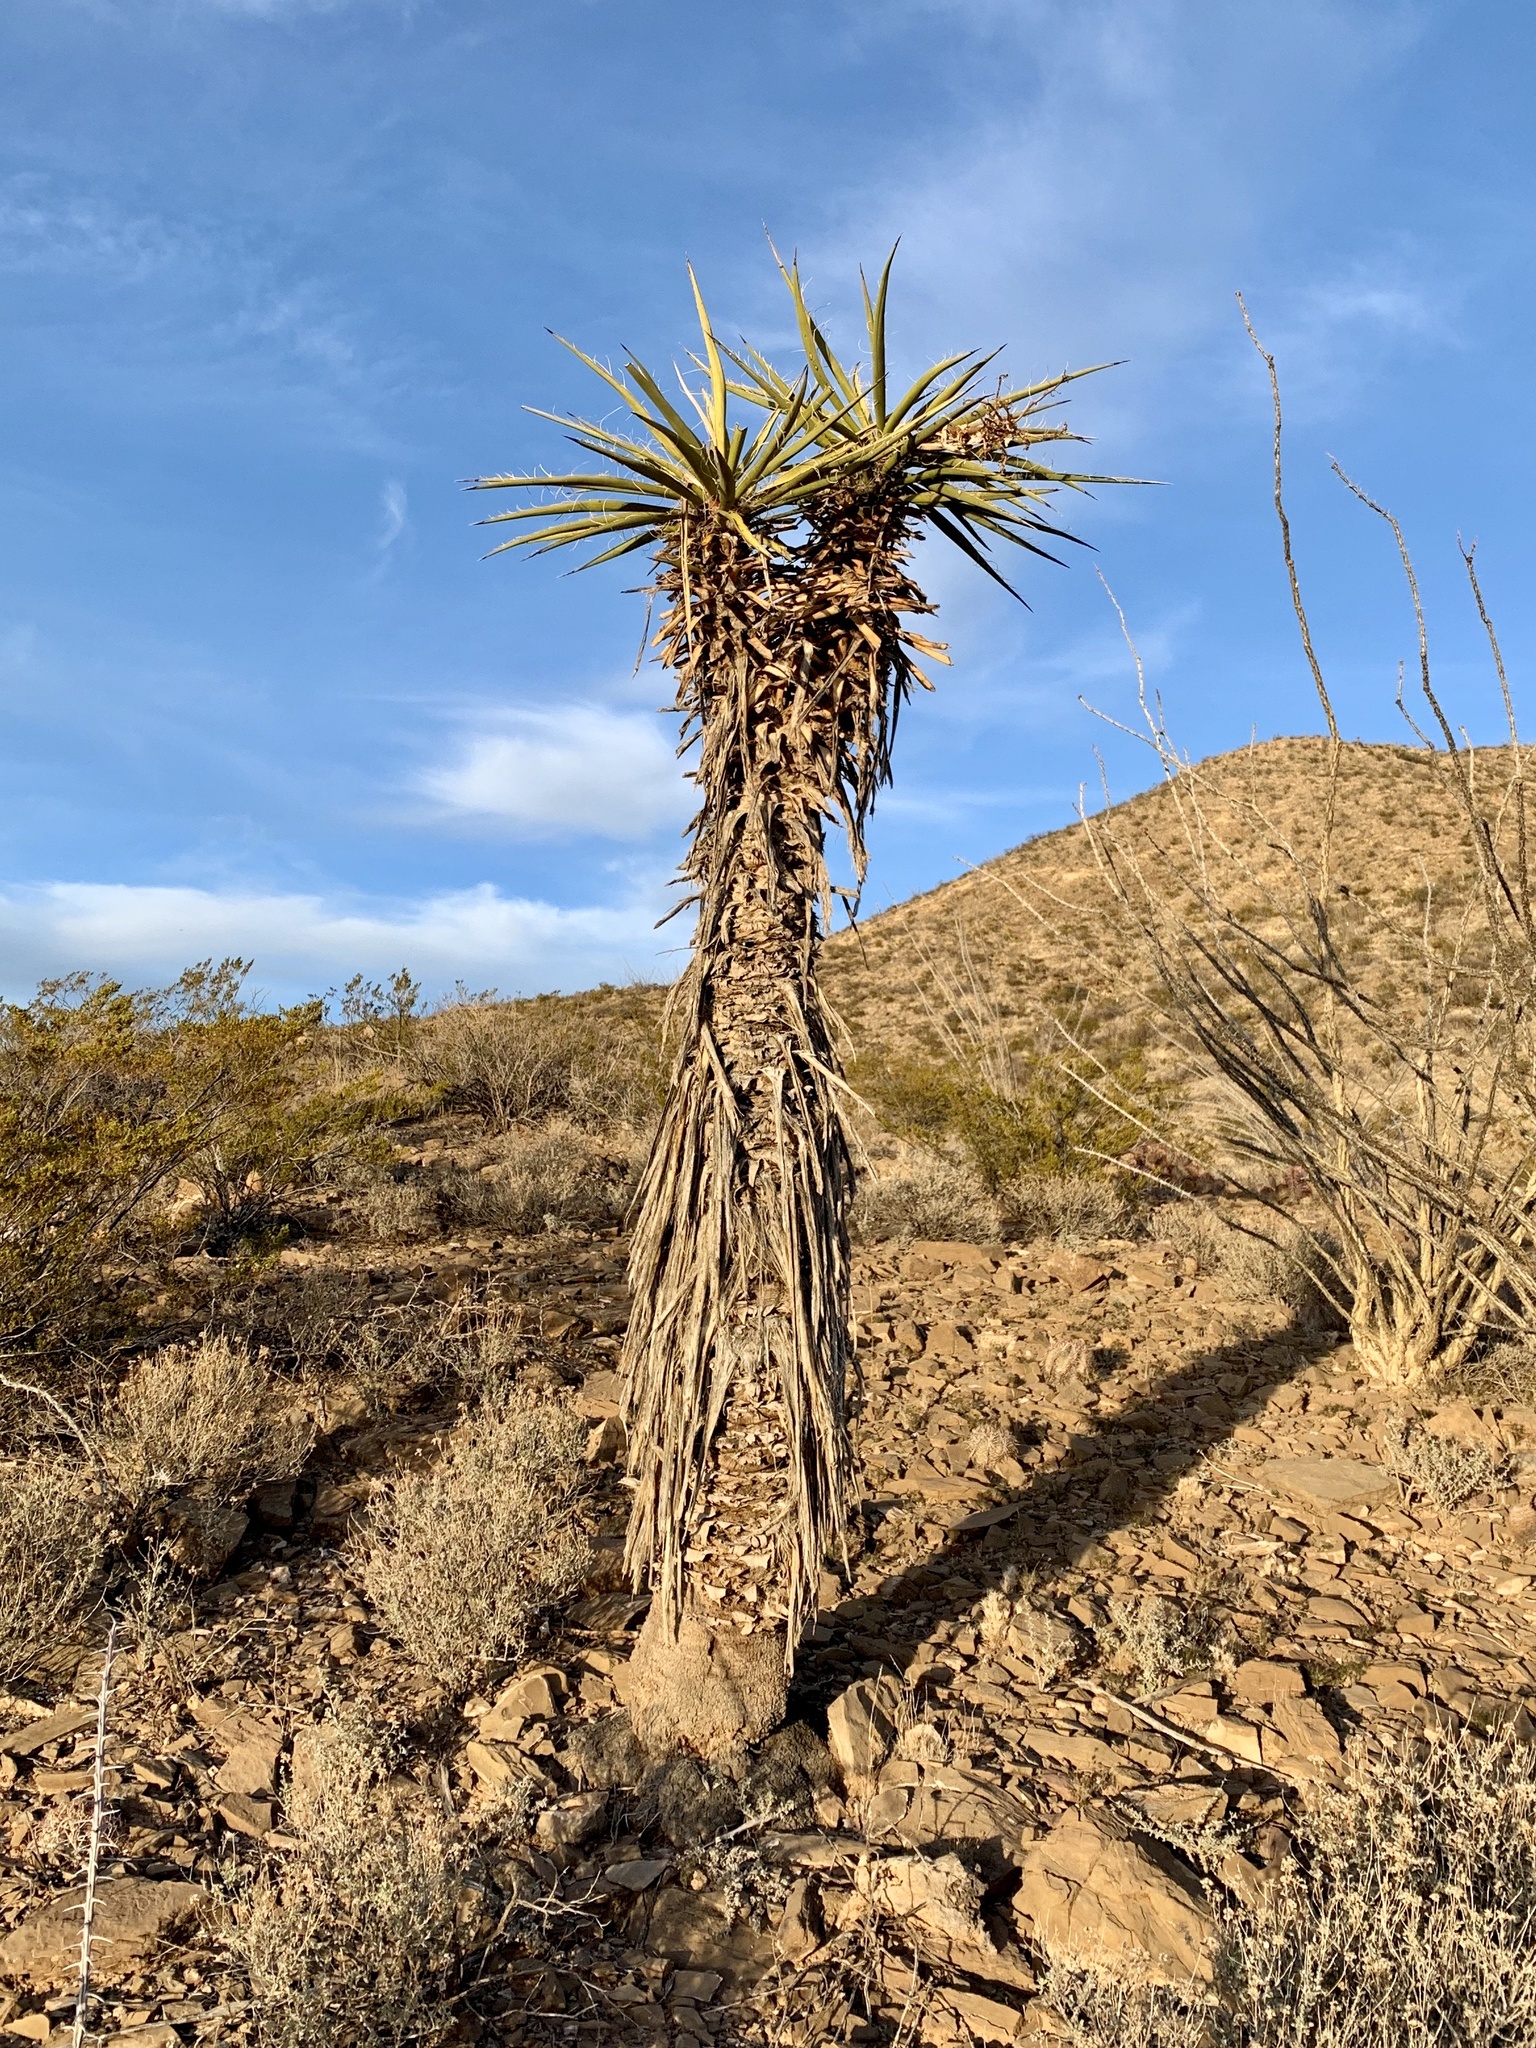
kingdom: Plantae
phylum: Tracheophyta
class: Liliopsida
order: Asparagales
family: Asparagaceae
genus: Yucca
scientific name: Yucca treculiana
